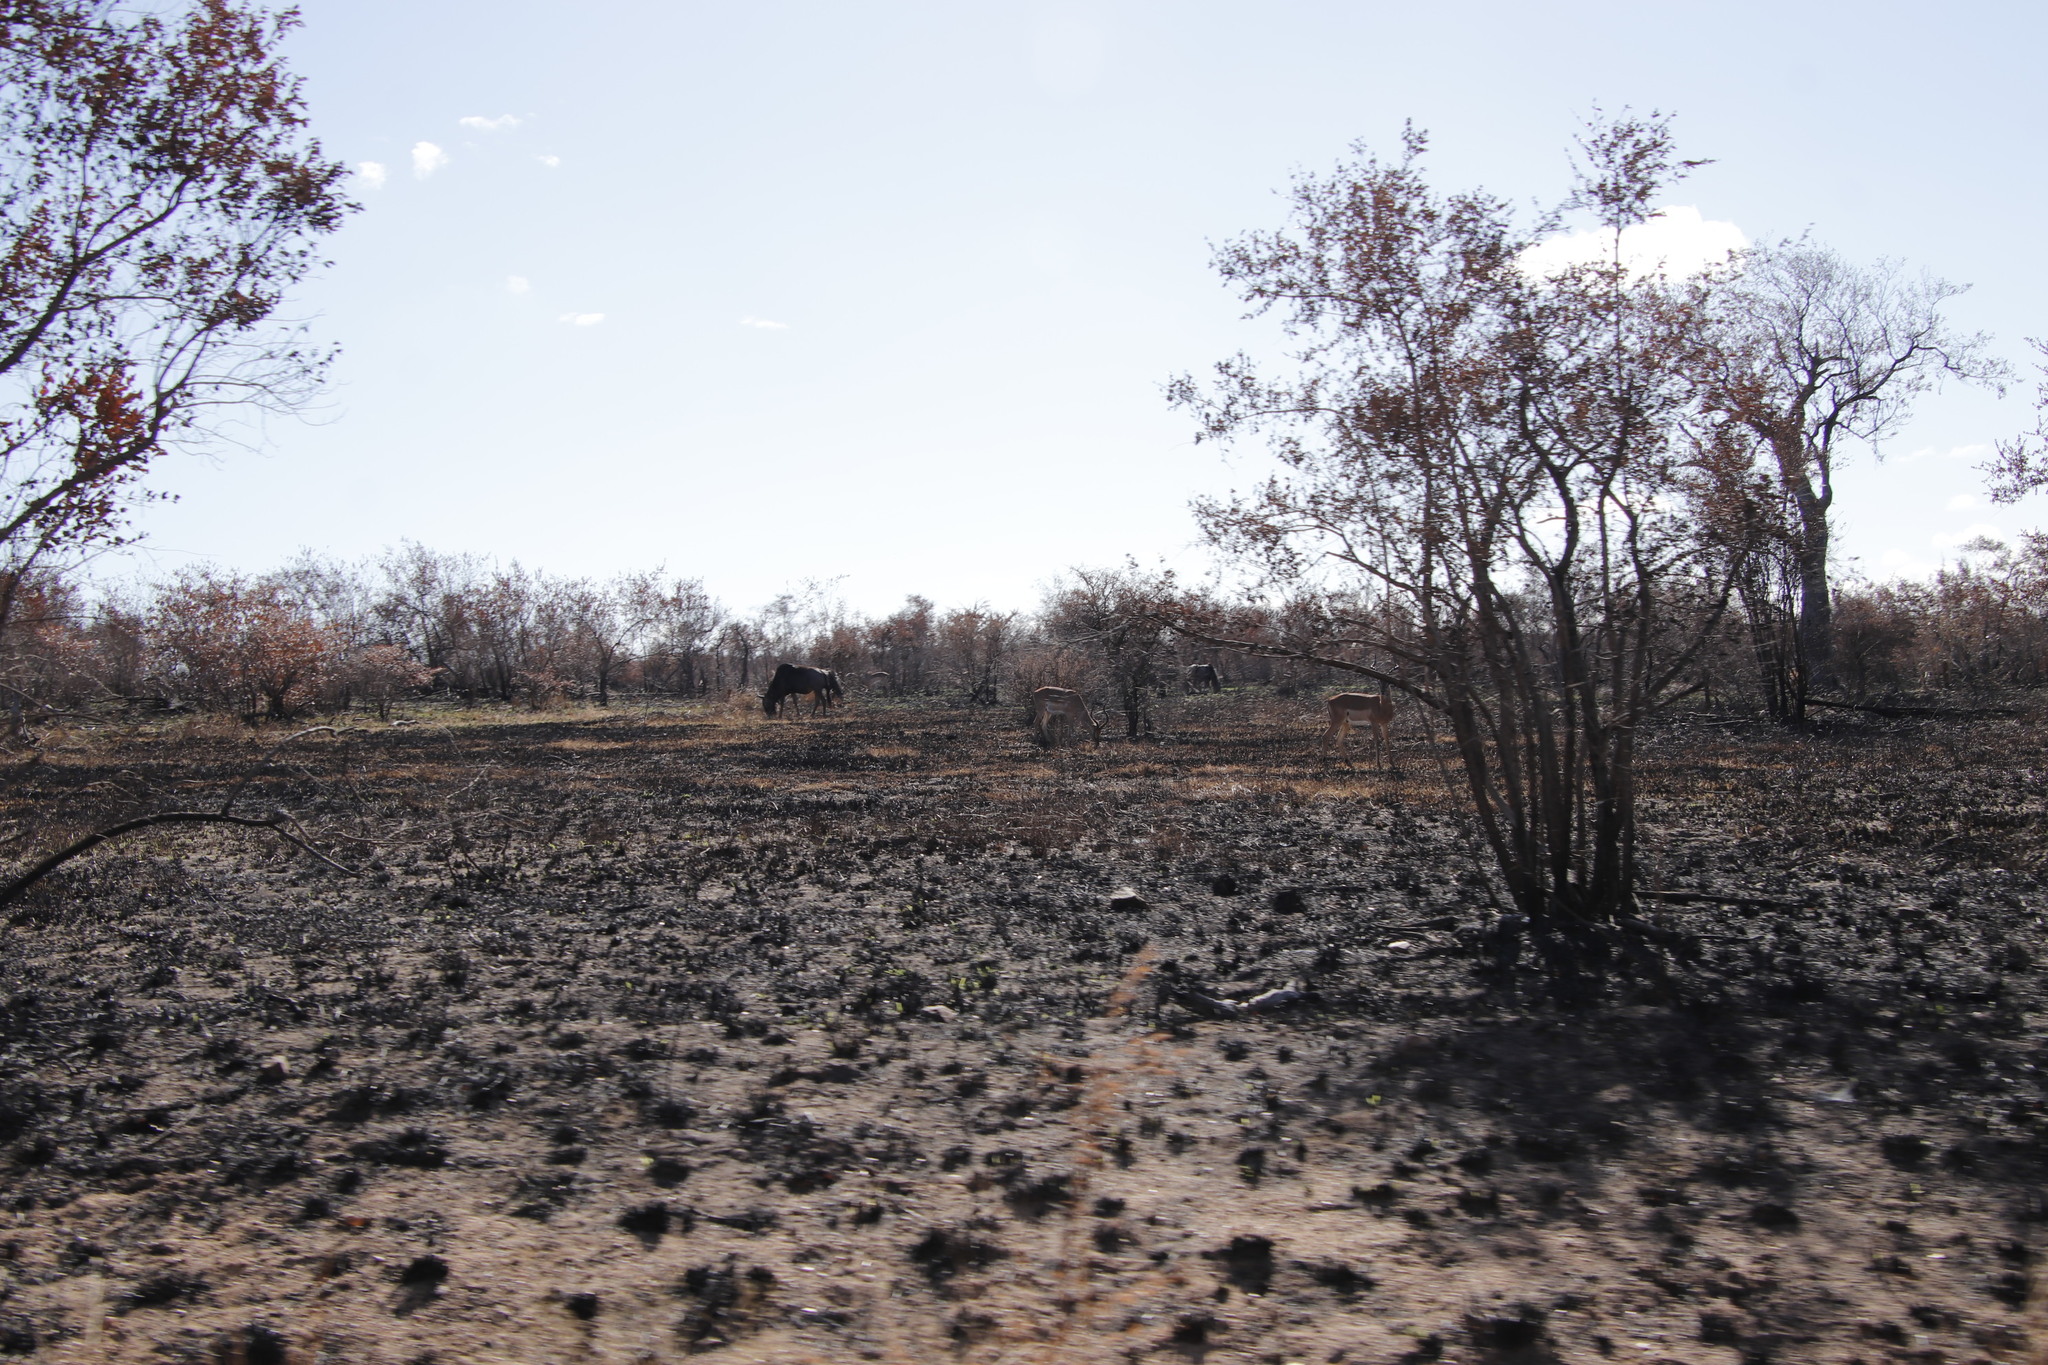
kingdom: Animalia
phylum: Chordata
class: Mammalia
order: Artiodactyla
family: Bovidae
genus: Connochaetes
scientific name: Connochaetes taurinus
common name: Blue wildebeest
